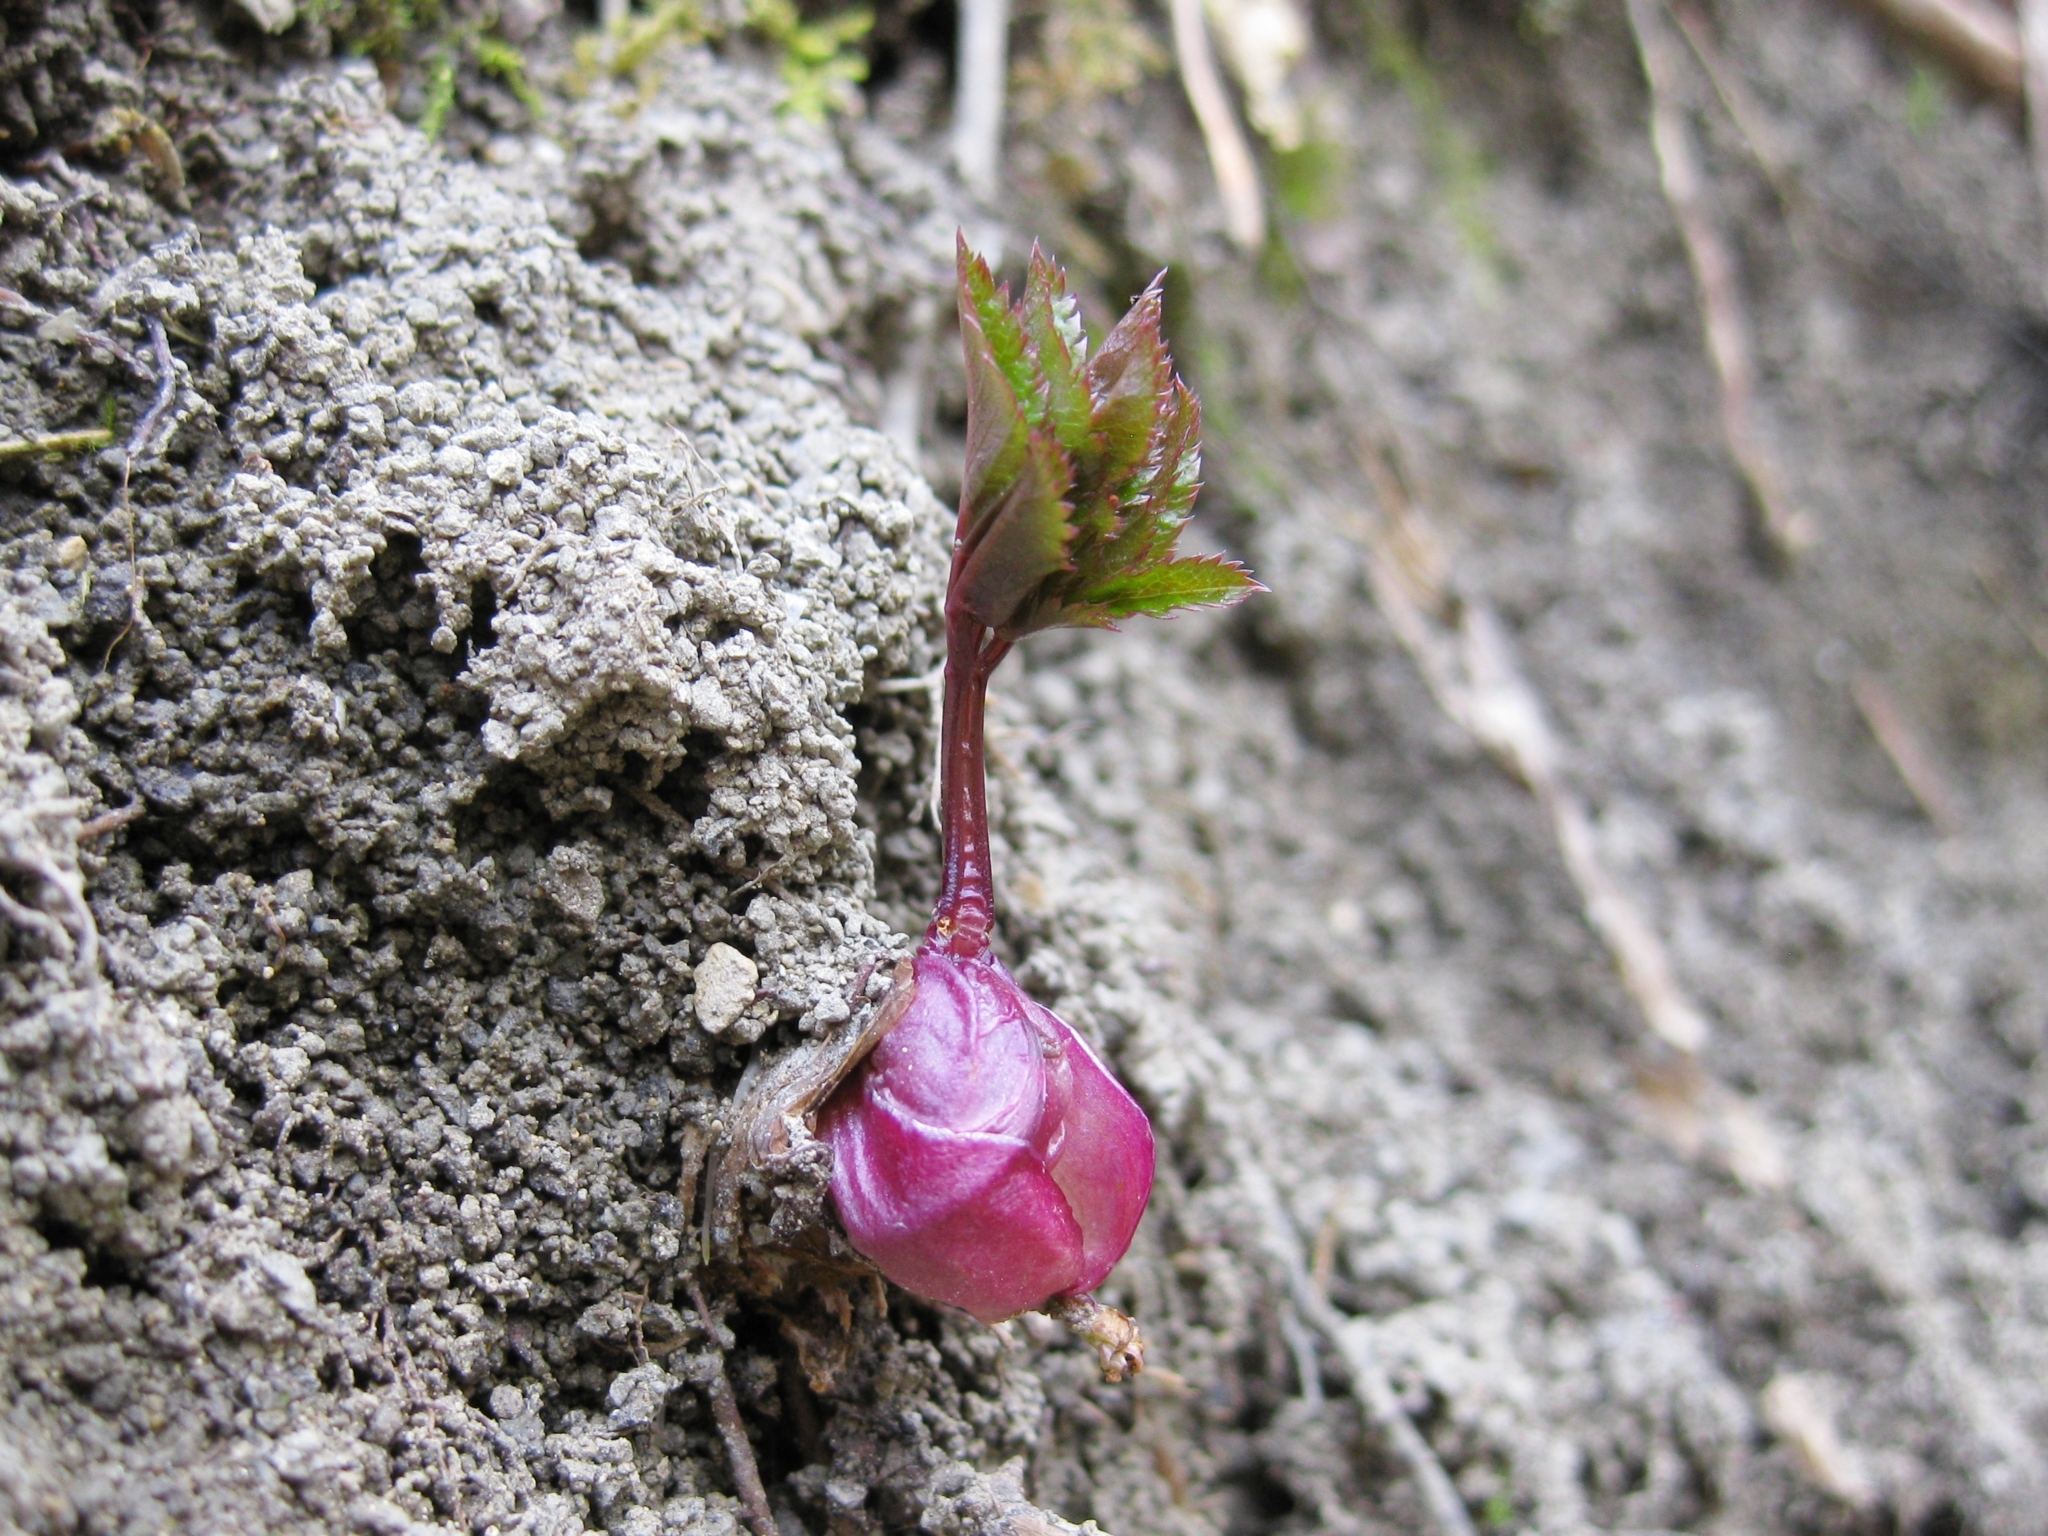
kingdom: Plantae
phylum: Tracheophyta
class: Magnoliopsida
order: Apiales
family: Apiaceae
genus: Aegopodium
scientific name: Aegopodium podagraria
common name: Ground-elder
